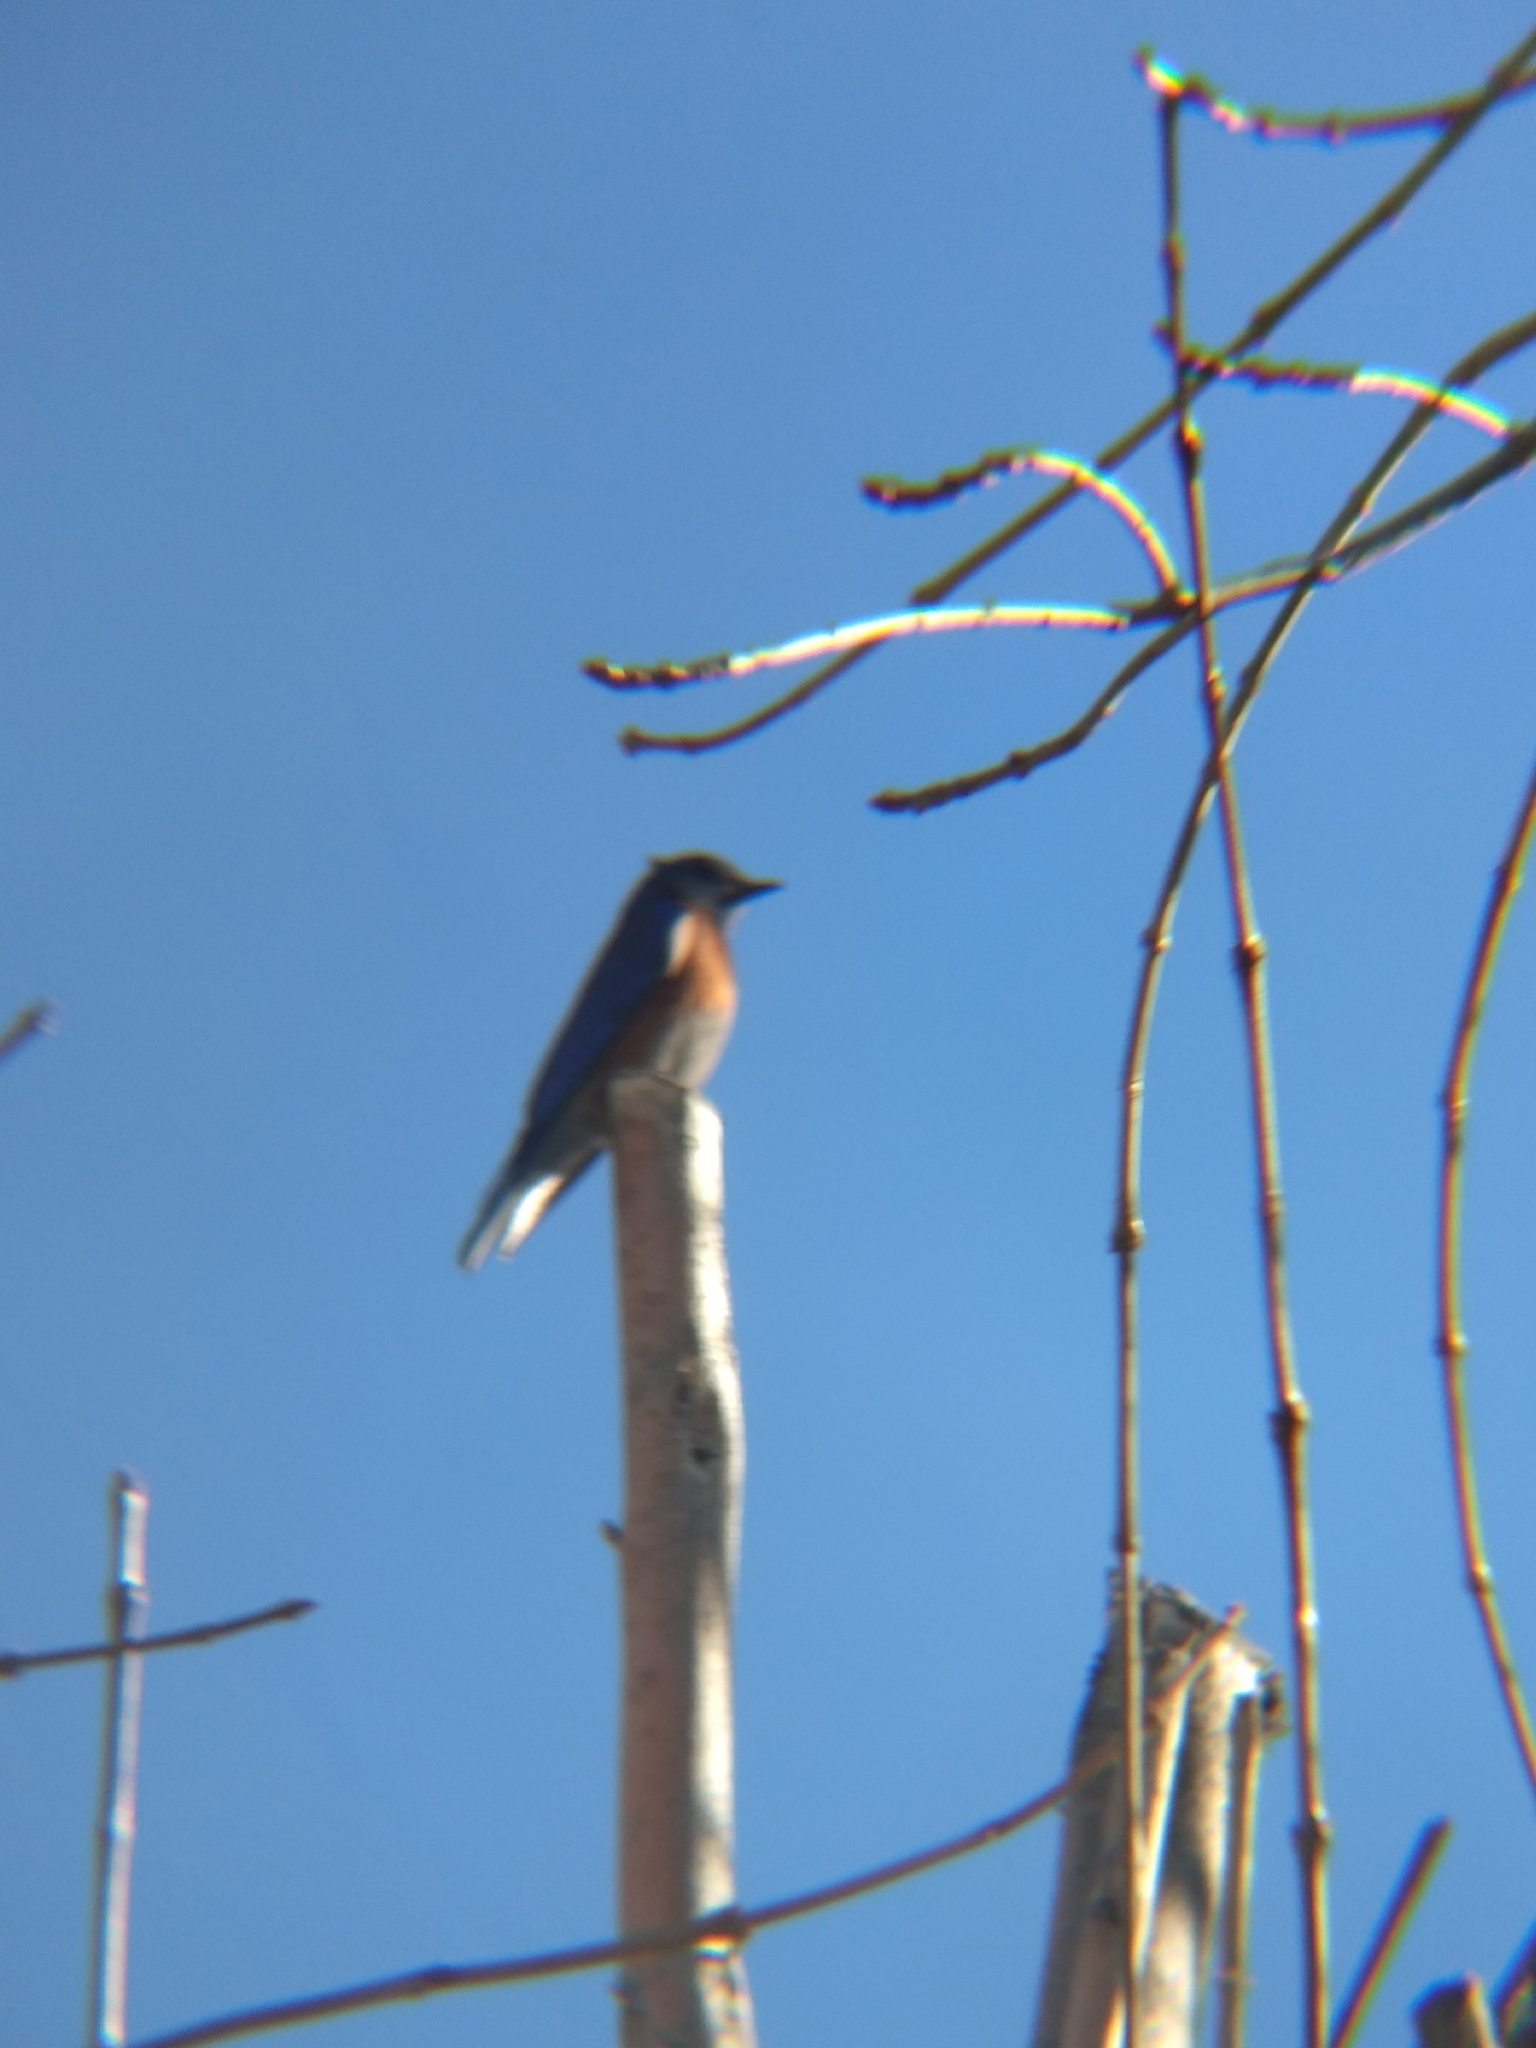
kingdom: Animalia
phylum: Chordata
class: Aves
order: Passeriformes
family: Turdidae
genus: Sialia
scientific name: Sialia mexicana
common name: Western bluebird
